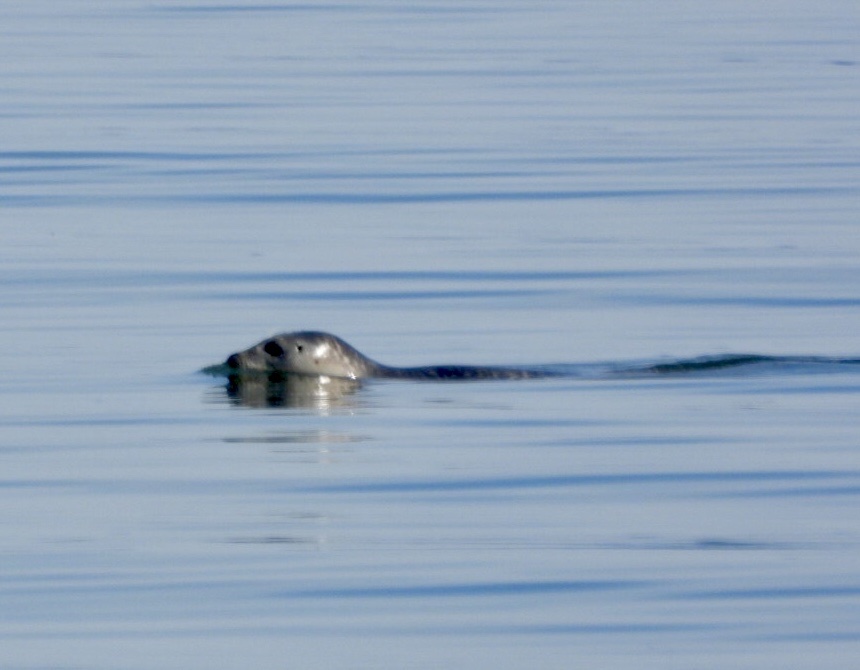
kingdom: Animalia
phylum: Chordata
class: Mammalia
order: Carnivora
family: Phocidae
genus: Phoca
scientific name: Phoca vitulina
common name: Harbor seal
